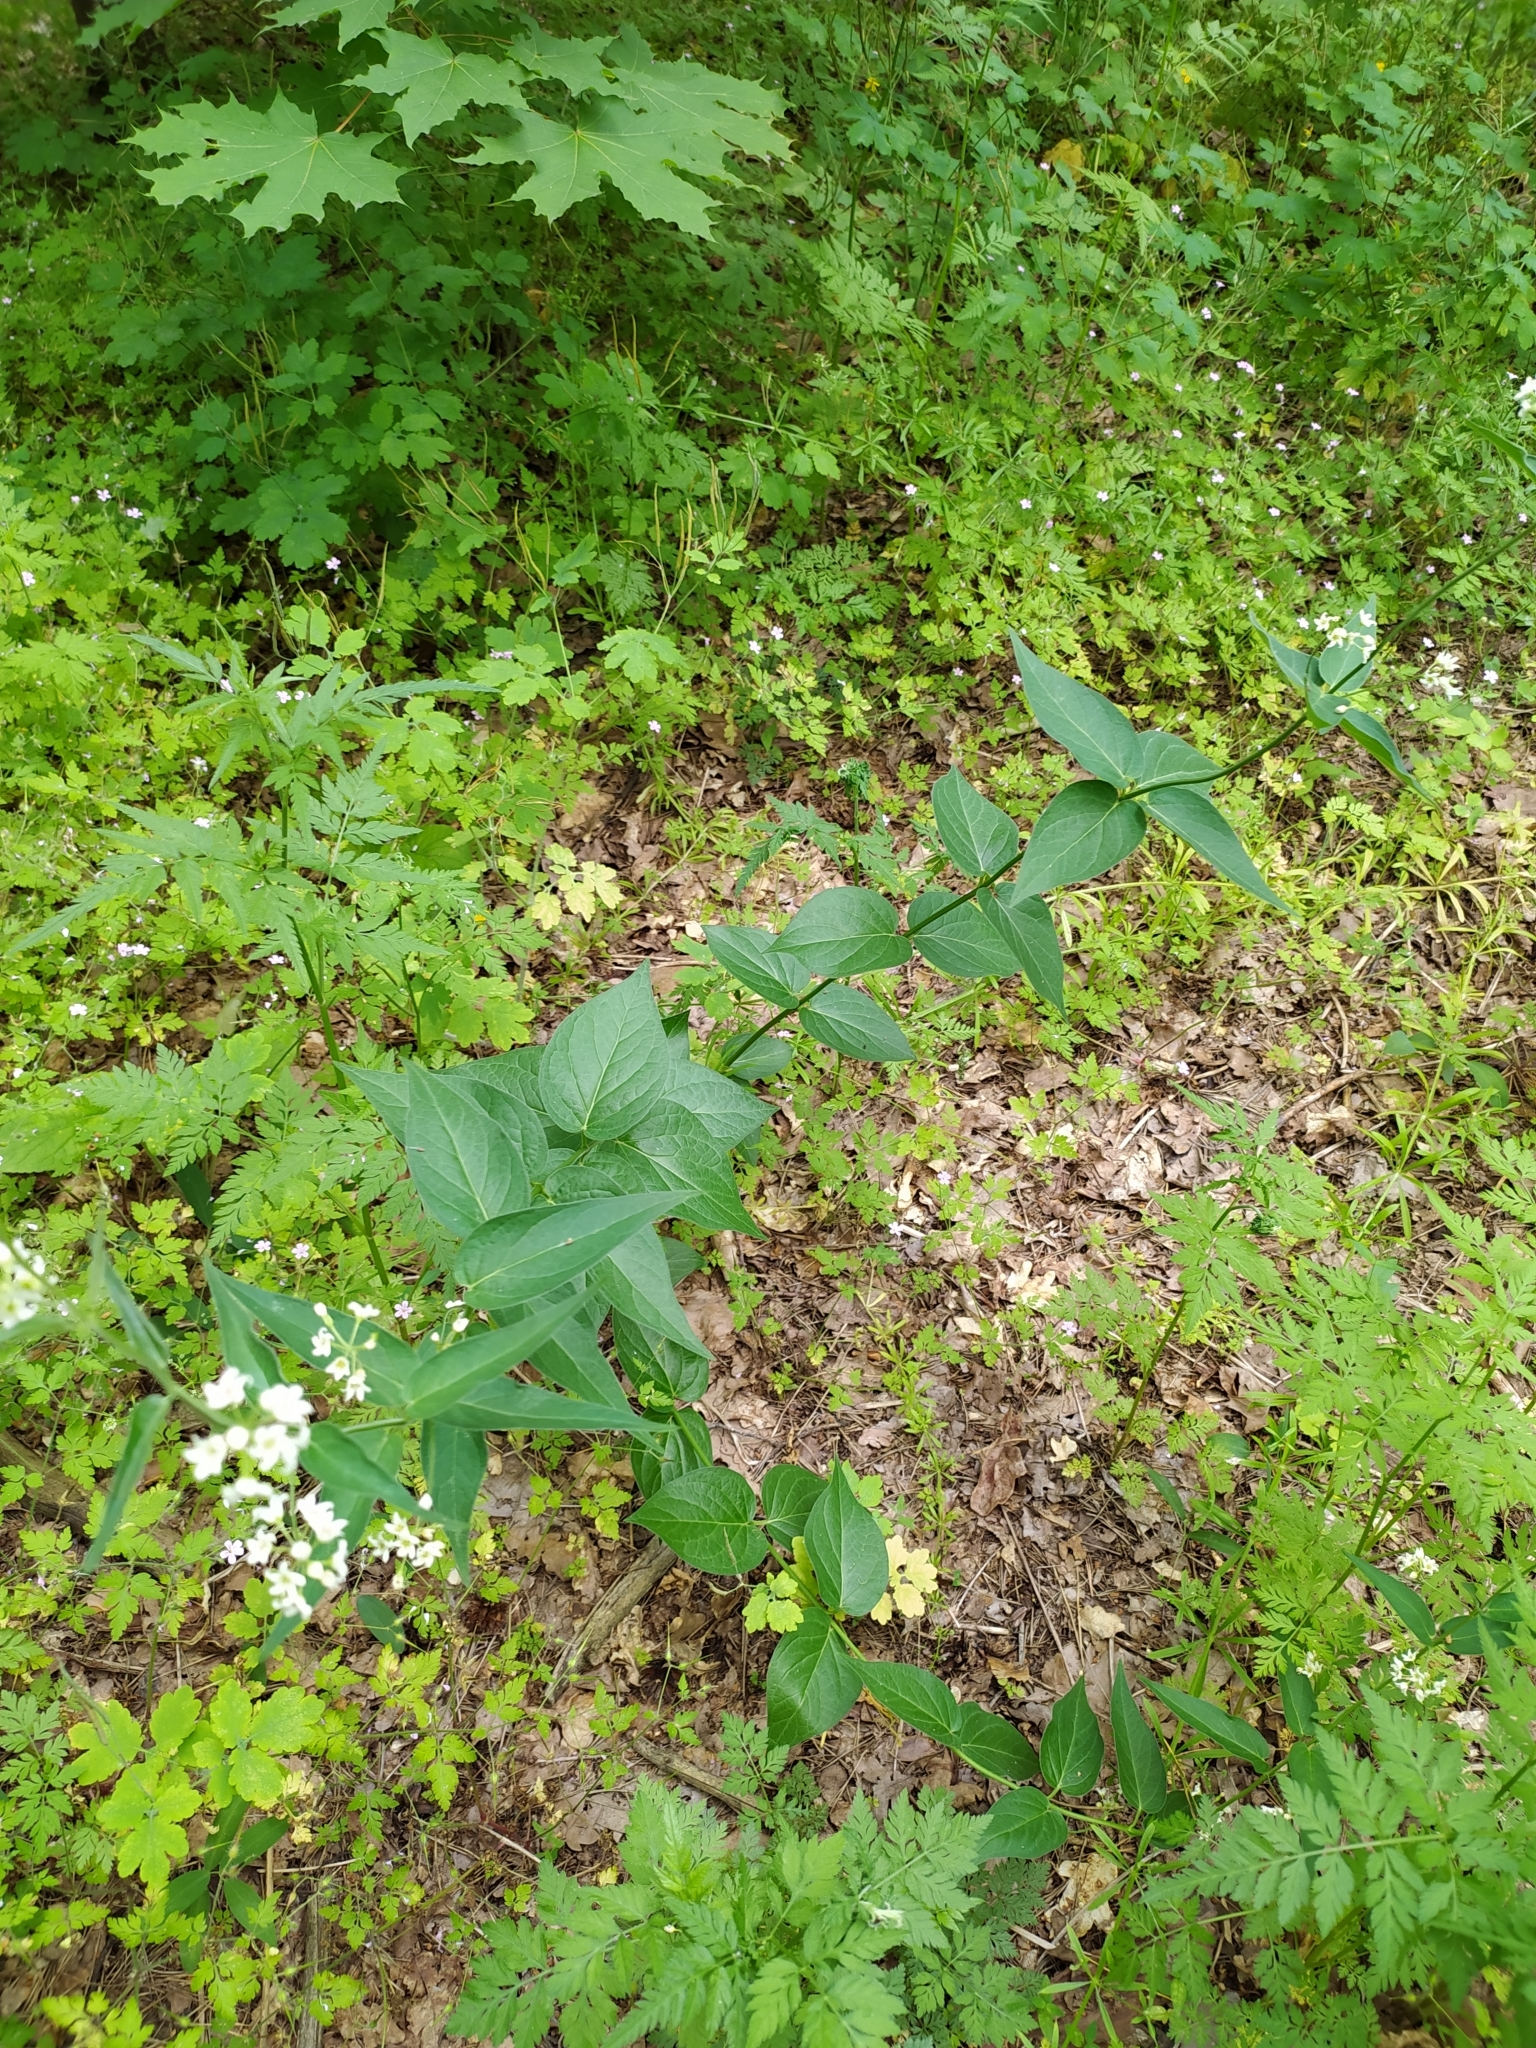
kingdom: Plantae
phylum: Tracheophyta
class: Magnoliopsida
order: Gentianales
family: Apocynaceae
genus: Vincetoxicum
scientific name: Vincetoxicum hirundinaria
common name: White swallowwort
